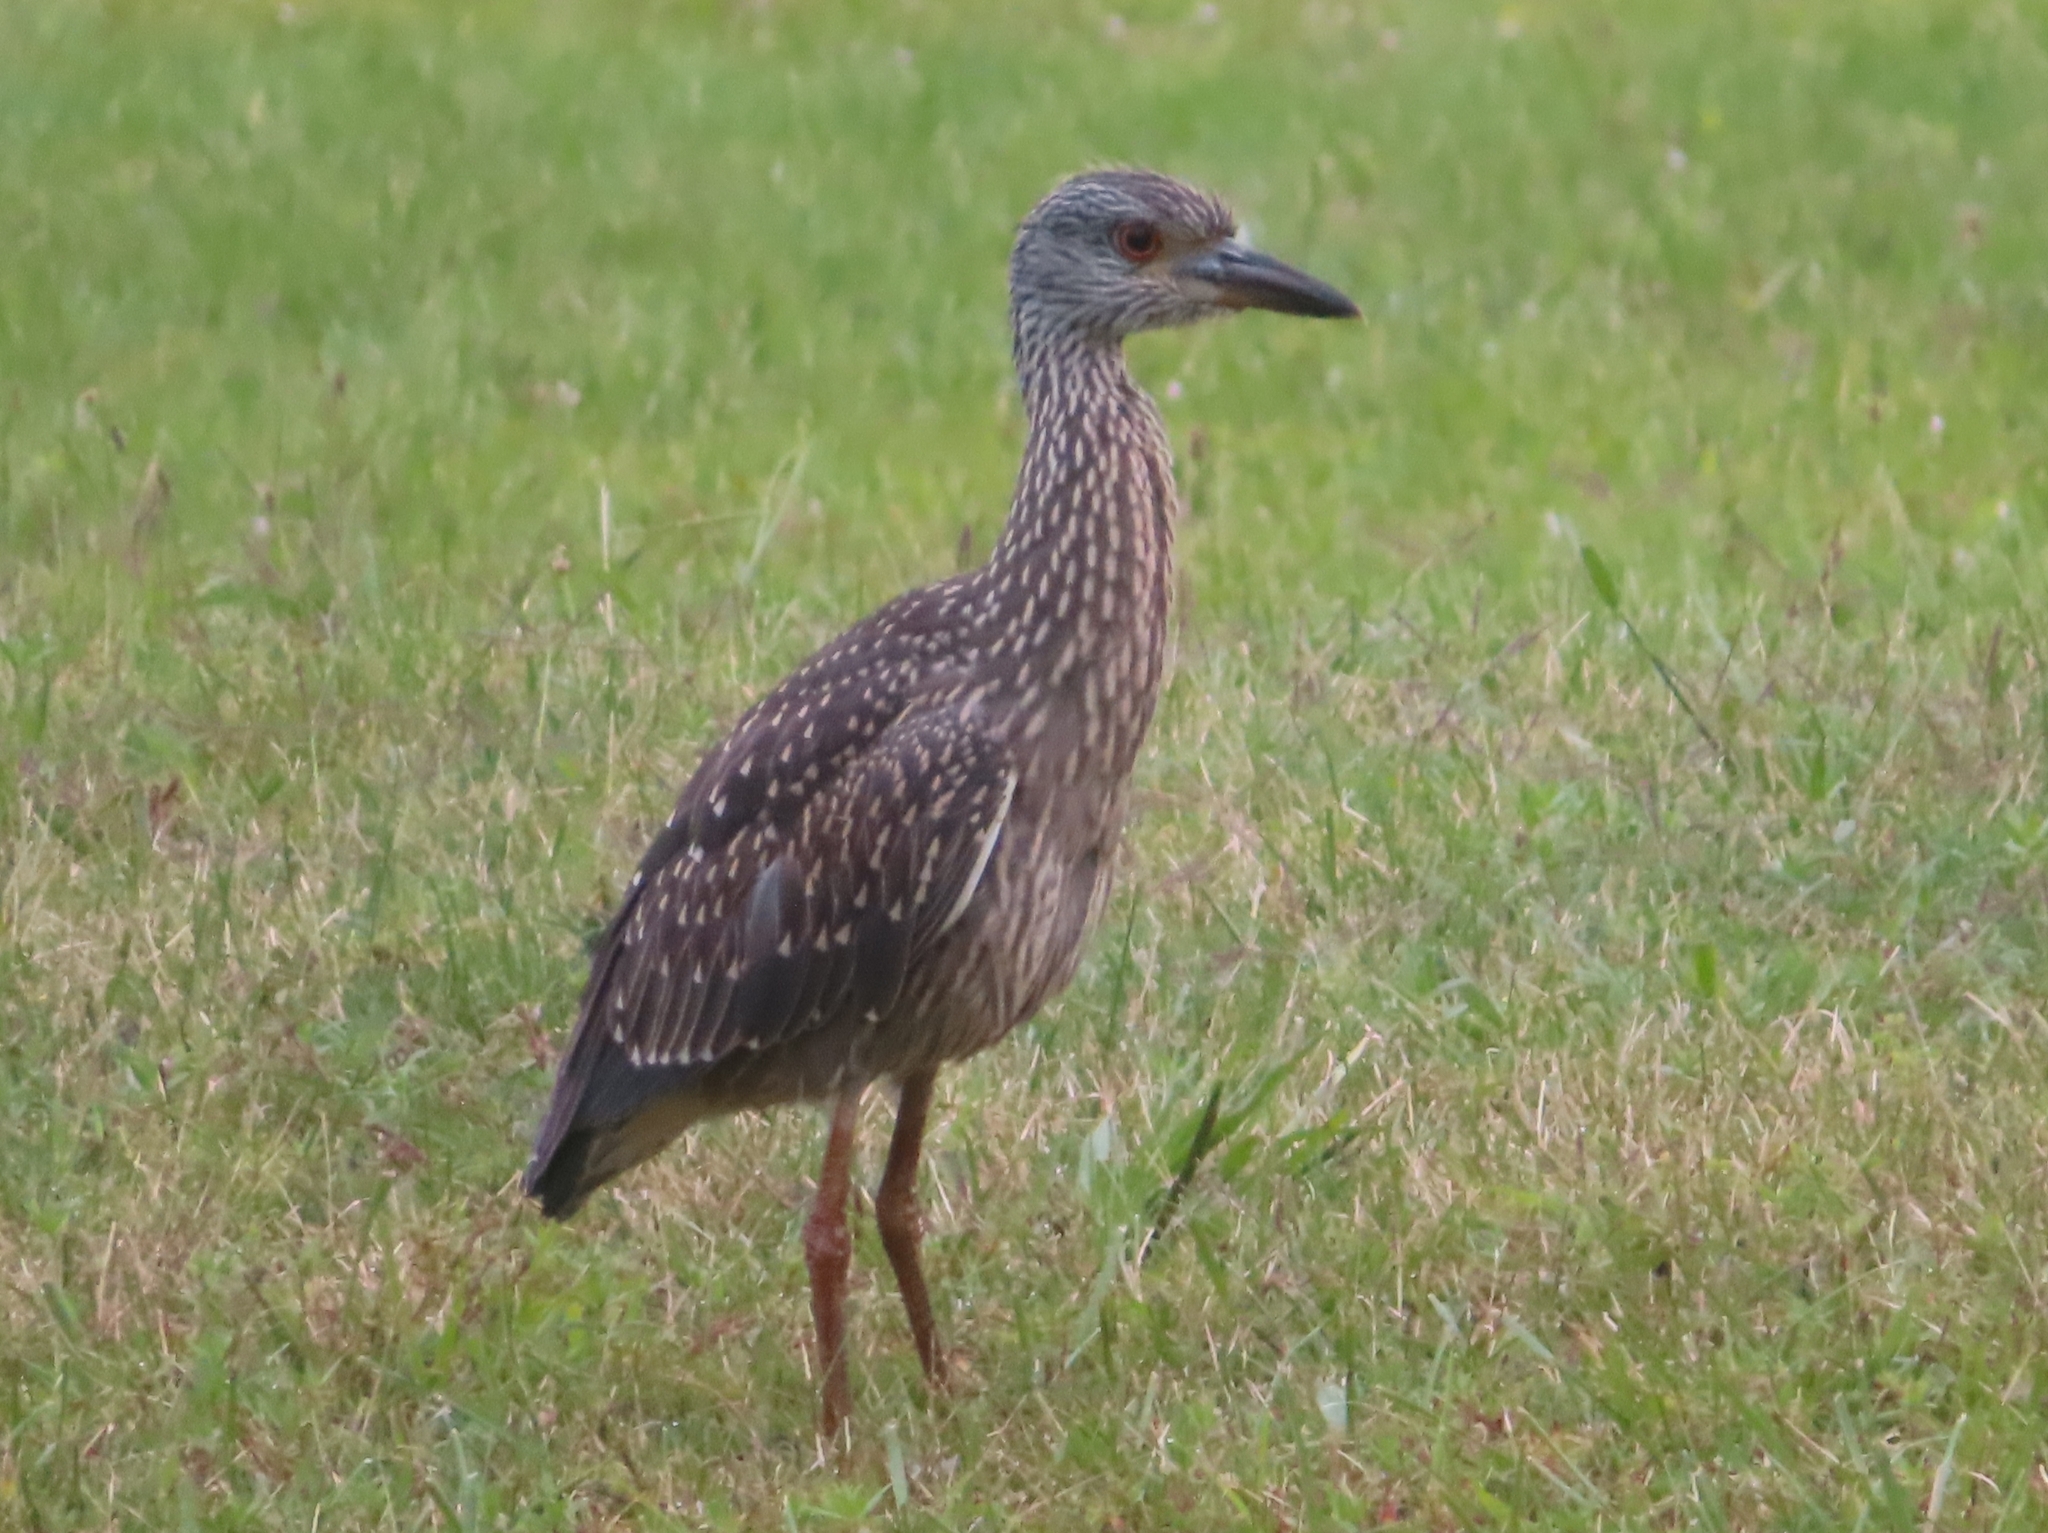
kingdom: Animalia
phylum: Chordata
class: Aves
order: Pelecaniformes
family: Ardeidae
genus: Nyctanassa
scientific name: Nyctanassa violacea
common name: Yellow-crowned night heron
